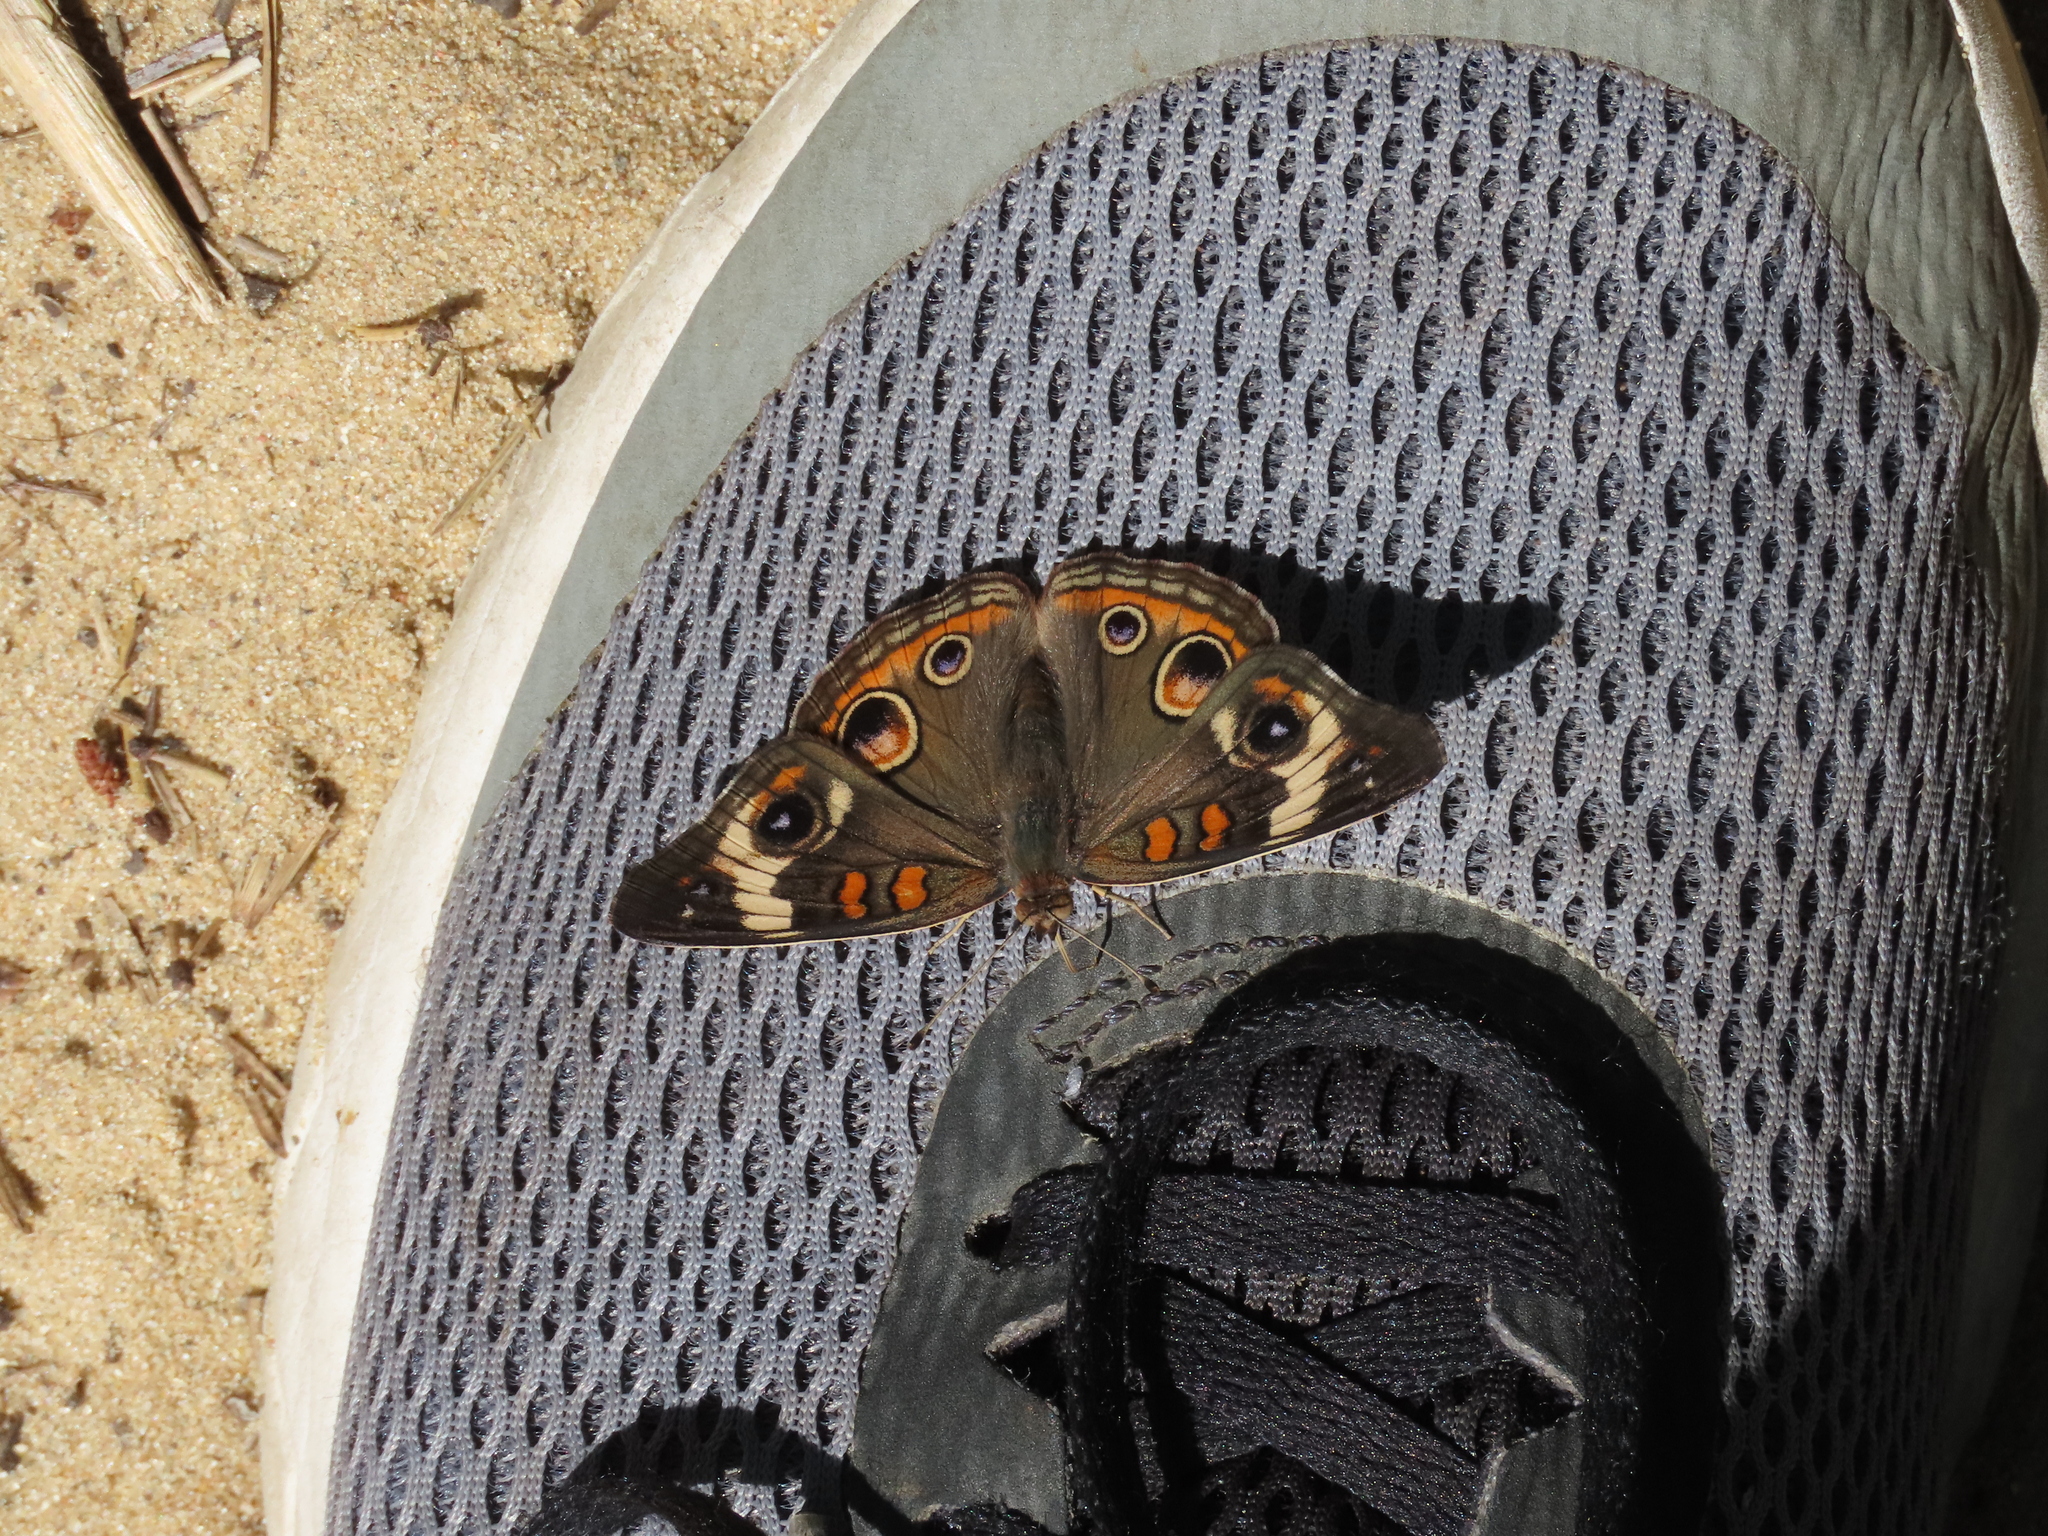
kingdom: Animalia
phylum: Arthropoda
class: Insecta
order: Lepidoptera
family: Nymphalidae
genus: Junonia
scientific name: Junonia coenia
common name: Common buckeye
